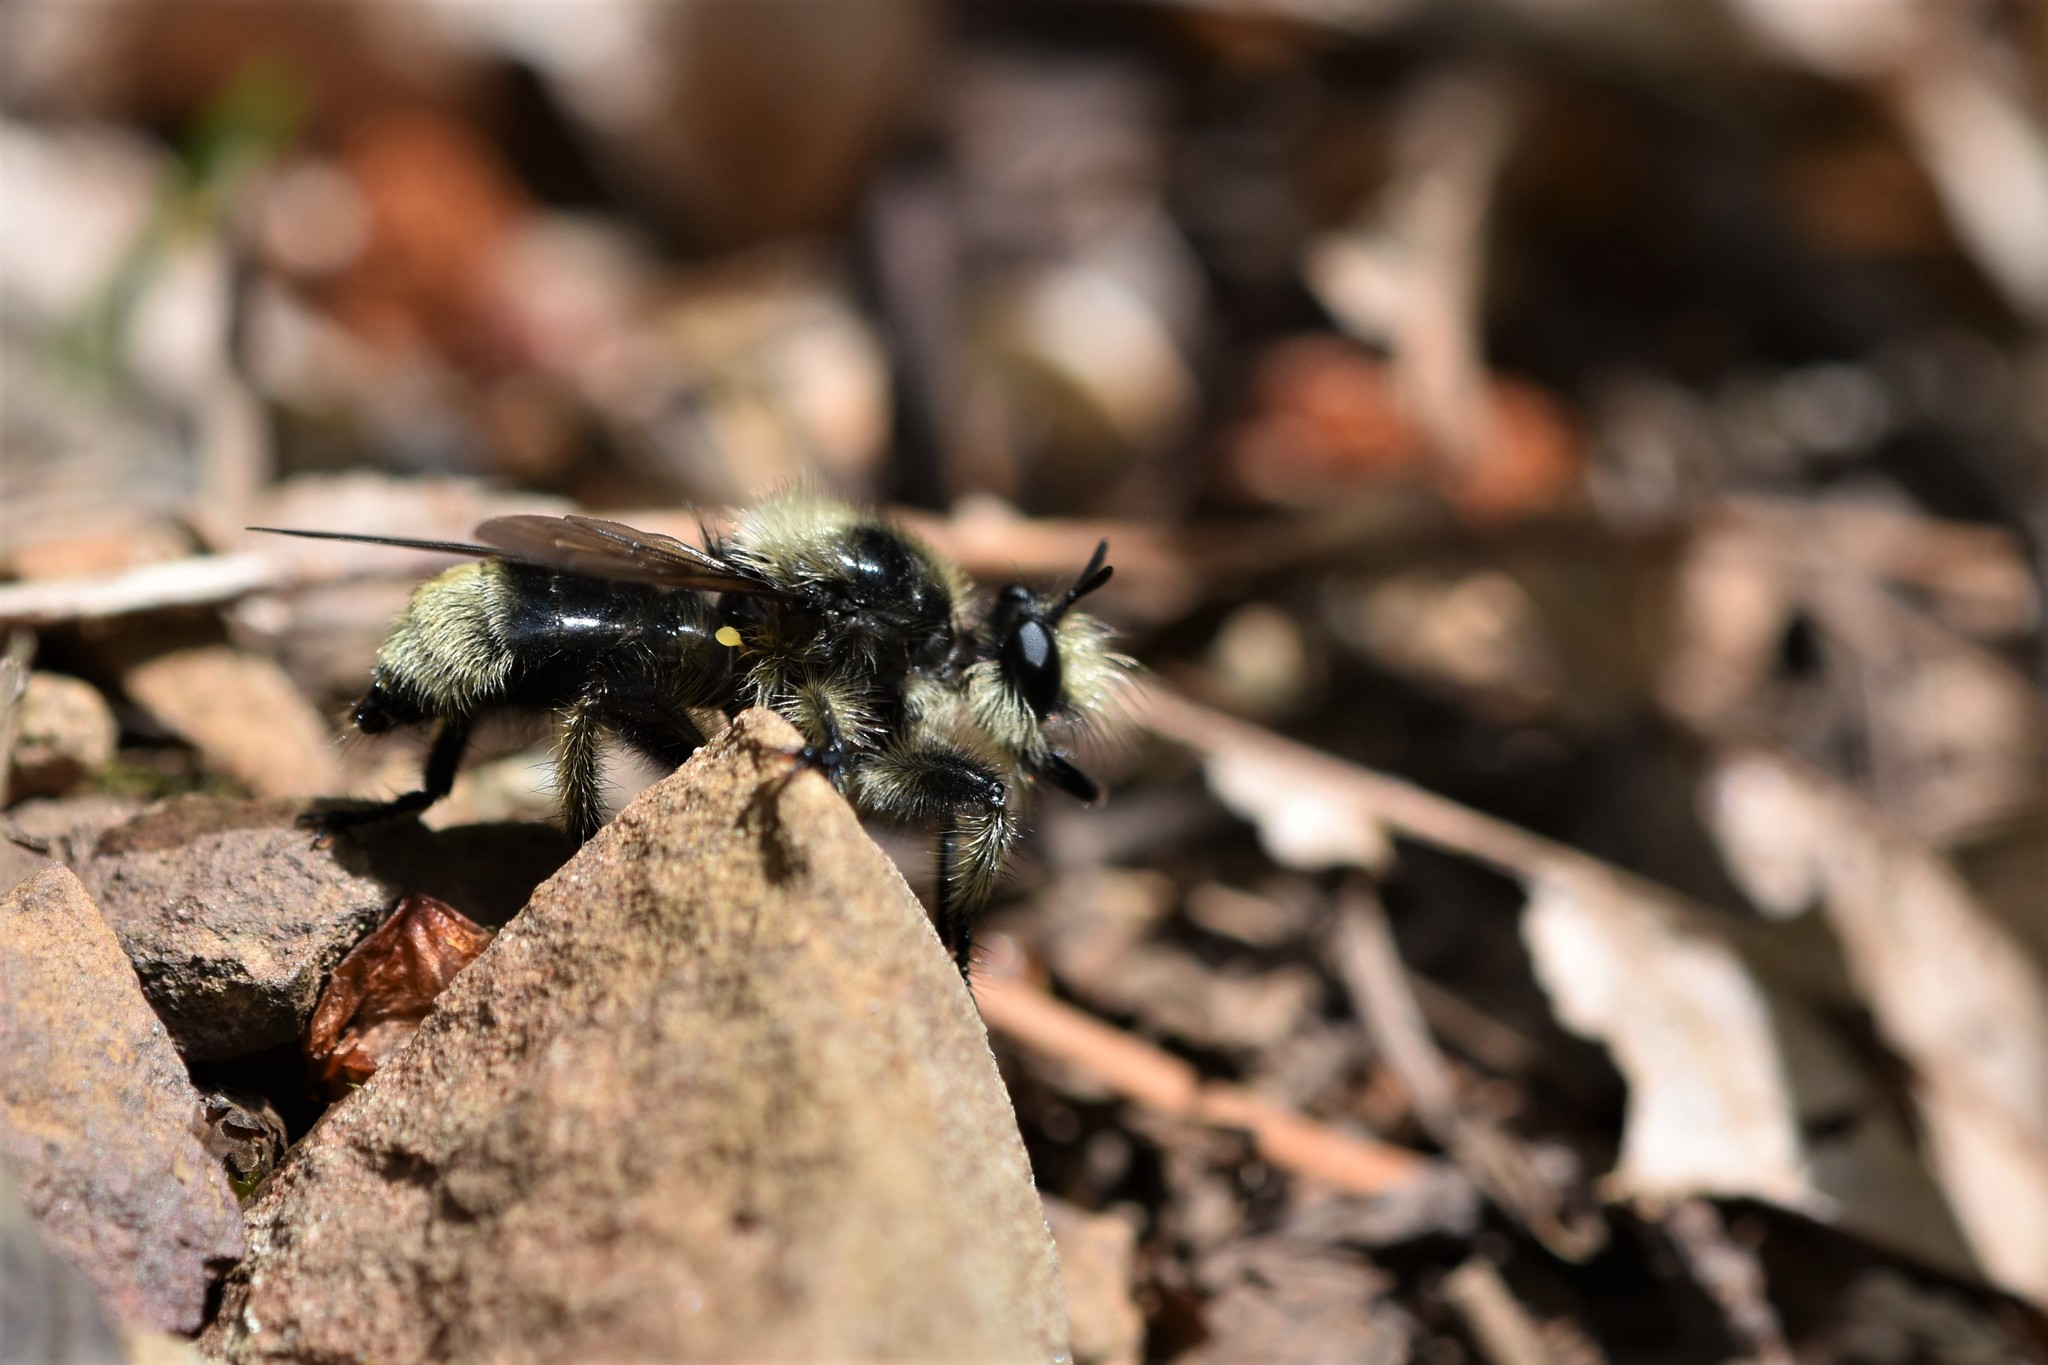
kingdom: Animalia
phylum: Arthropoda
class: Insecta
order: Diptera
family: Asilidae
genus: Laphria
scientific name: Laphria columbica
